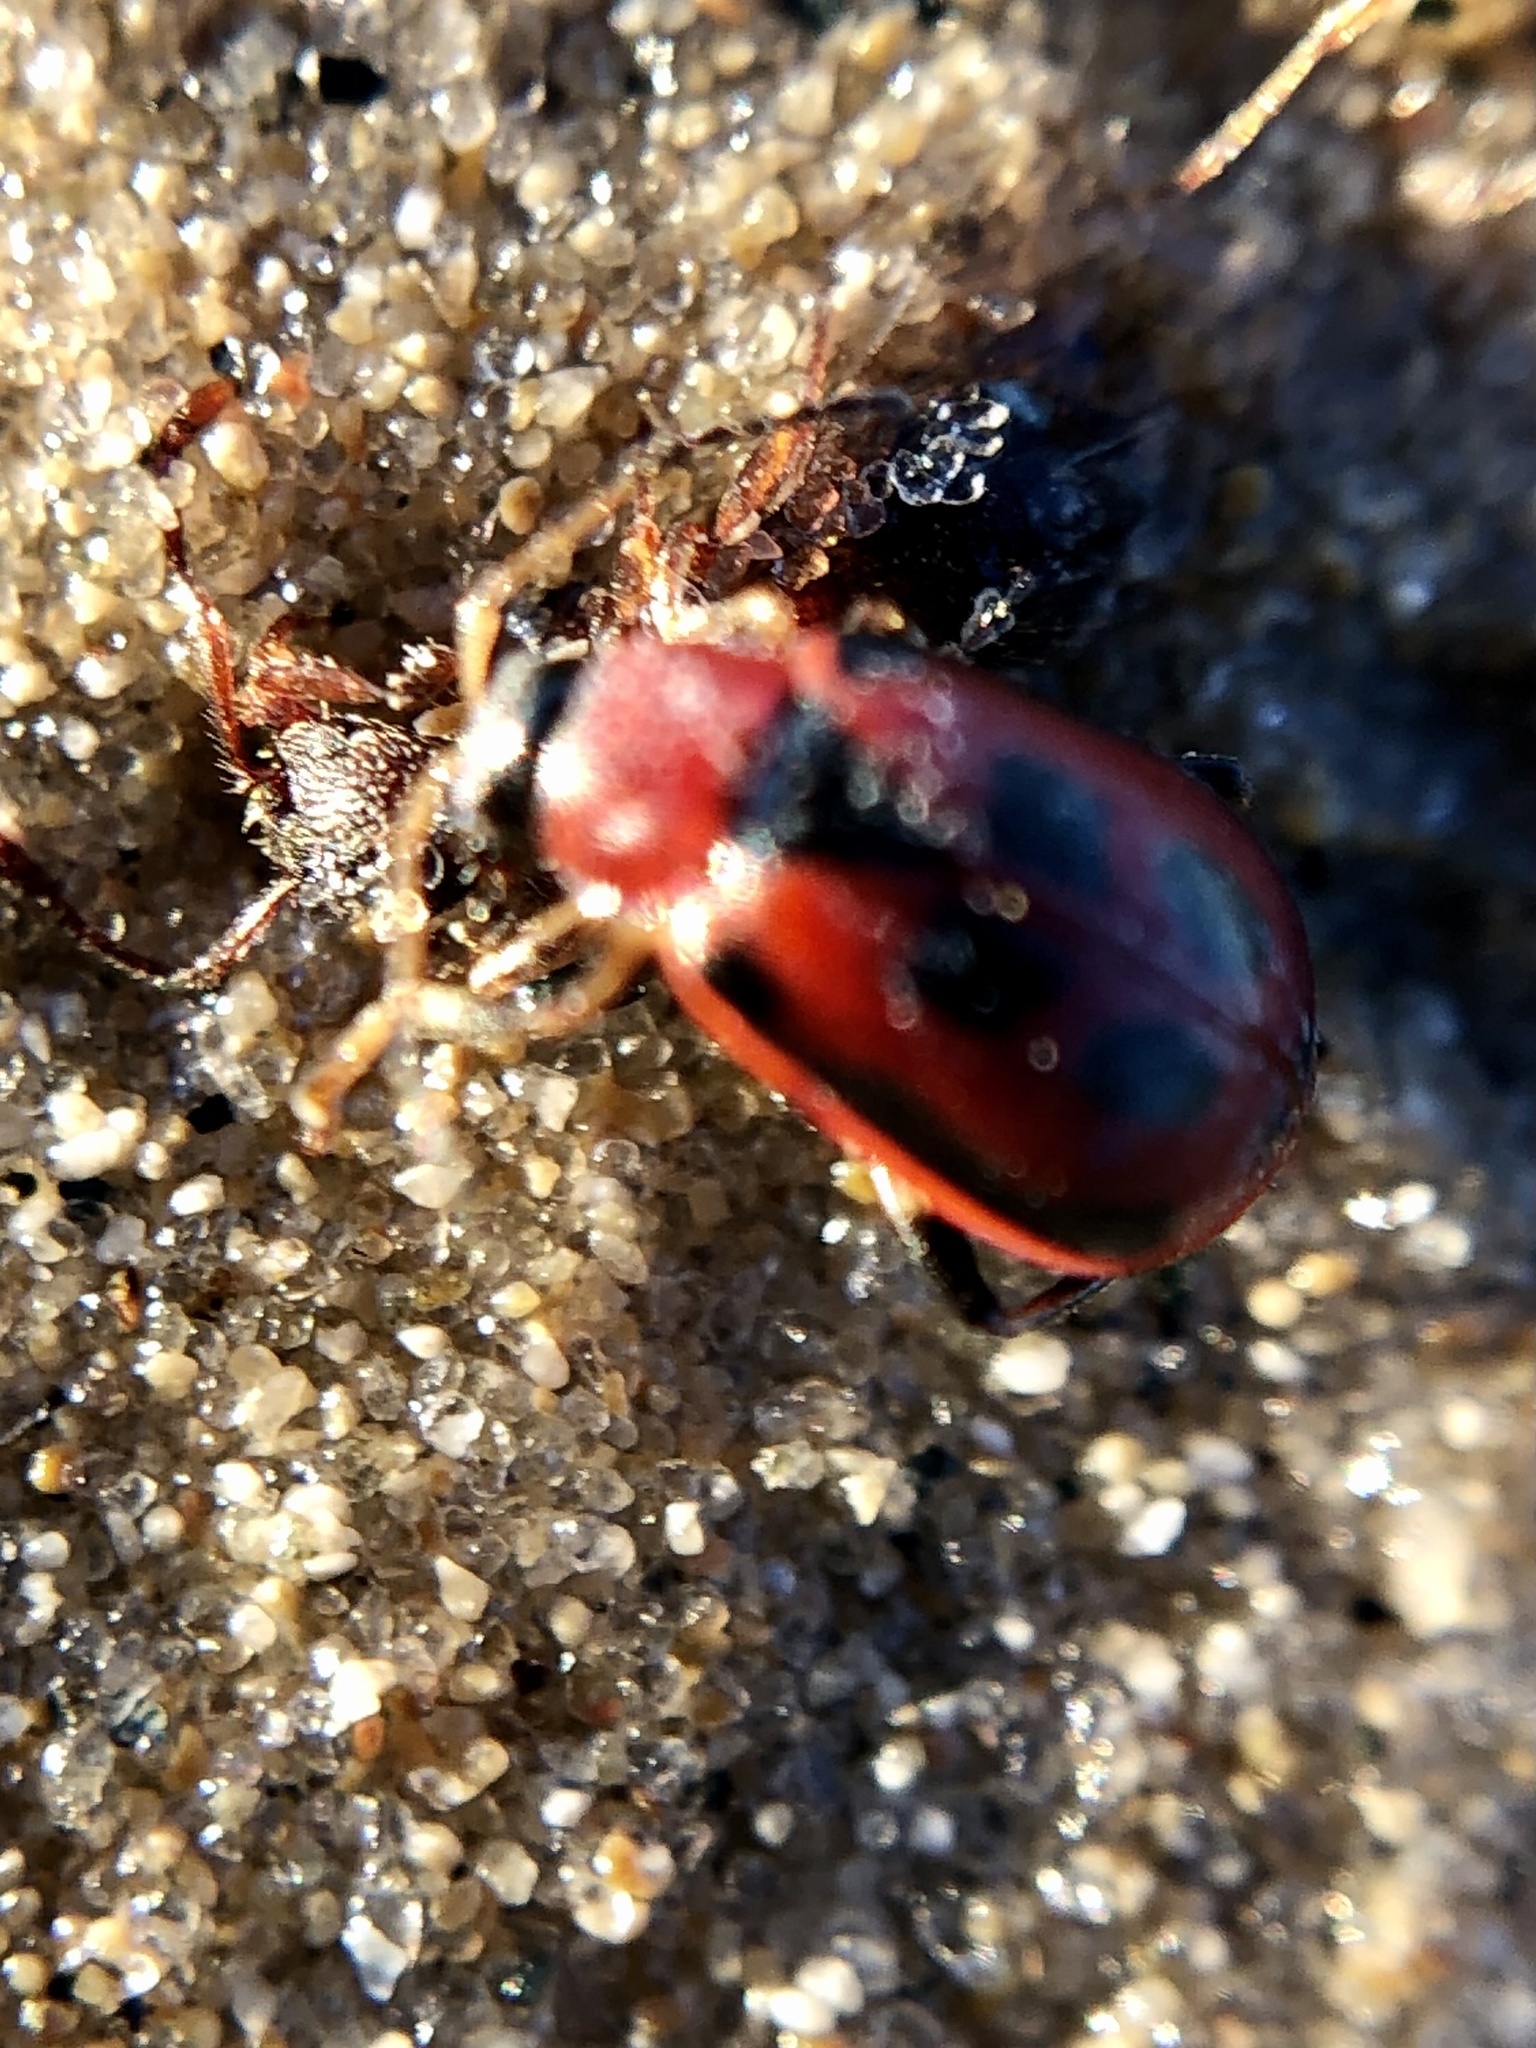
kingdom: Animalia
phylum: Arthropoda
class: Insecta
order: Coleoptera
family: Chrysomelidae
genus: Cerotoma
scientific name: Cerotoma trifurcata
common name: Bean leaf beetle
